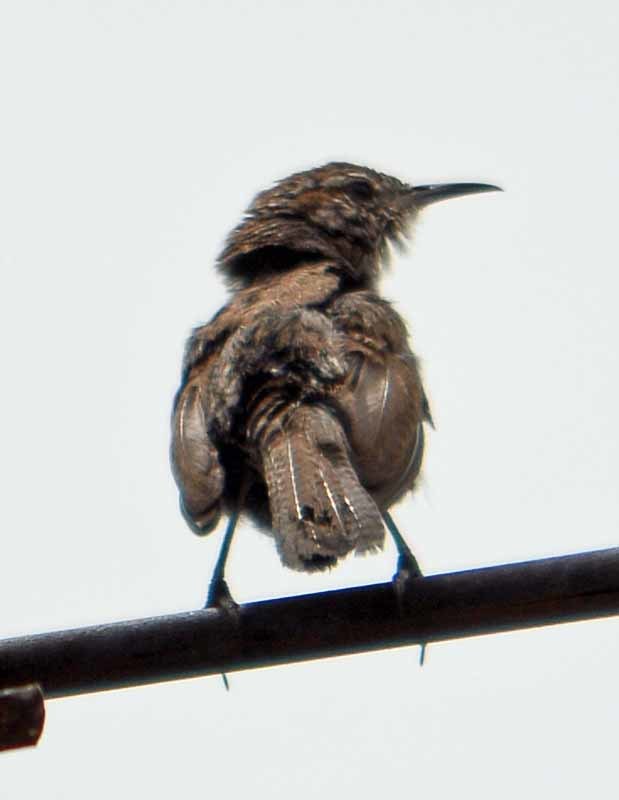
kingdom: Animalia
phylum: Chordata
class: Aves
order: Passeriformes
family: Troglodytidae
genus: Thryomanes
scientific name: Thryomanes bewickii
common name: Bewick's wren
